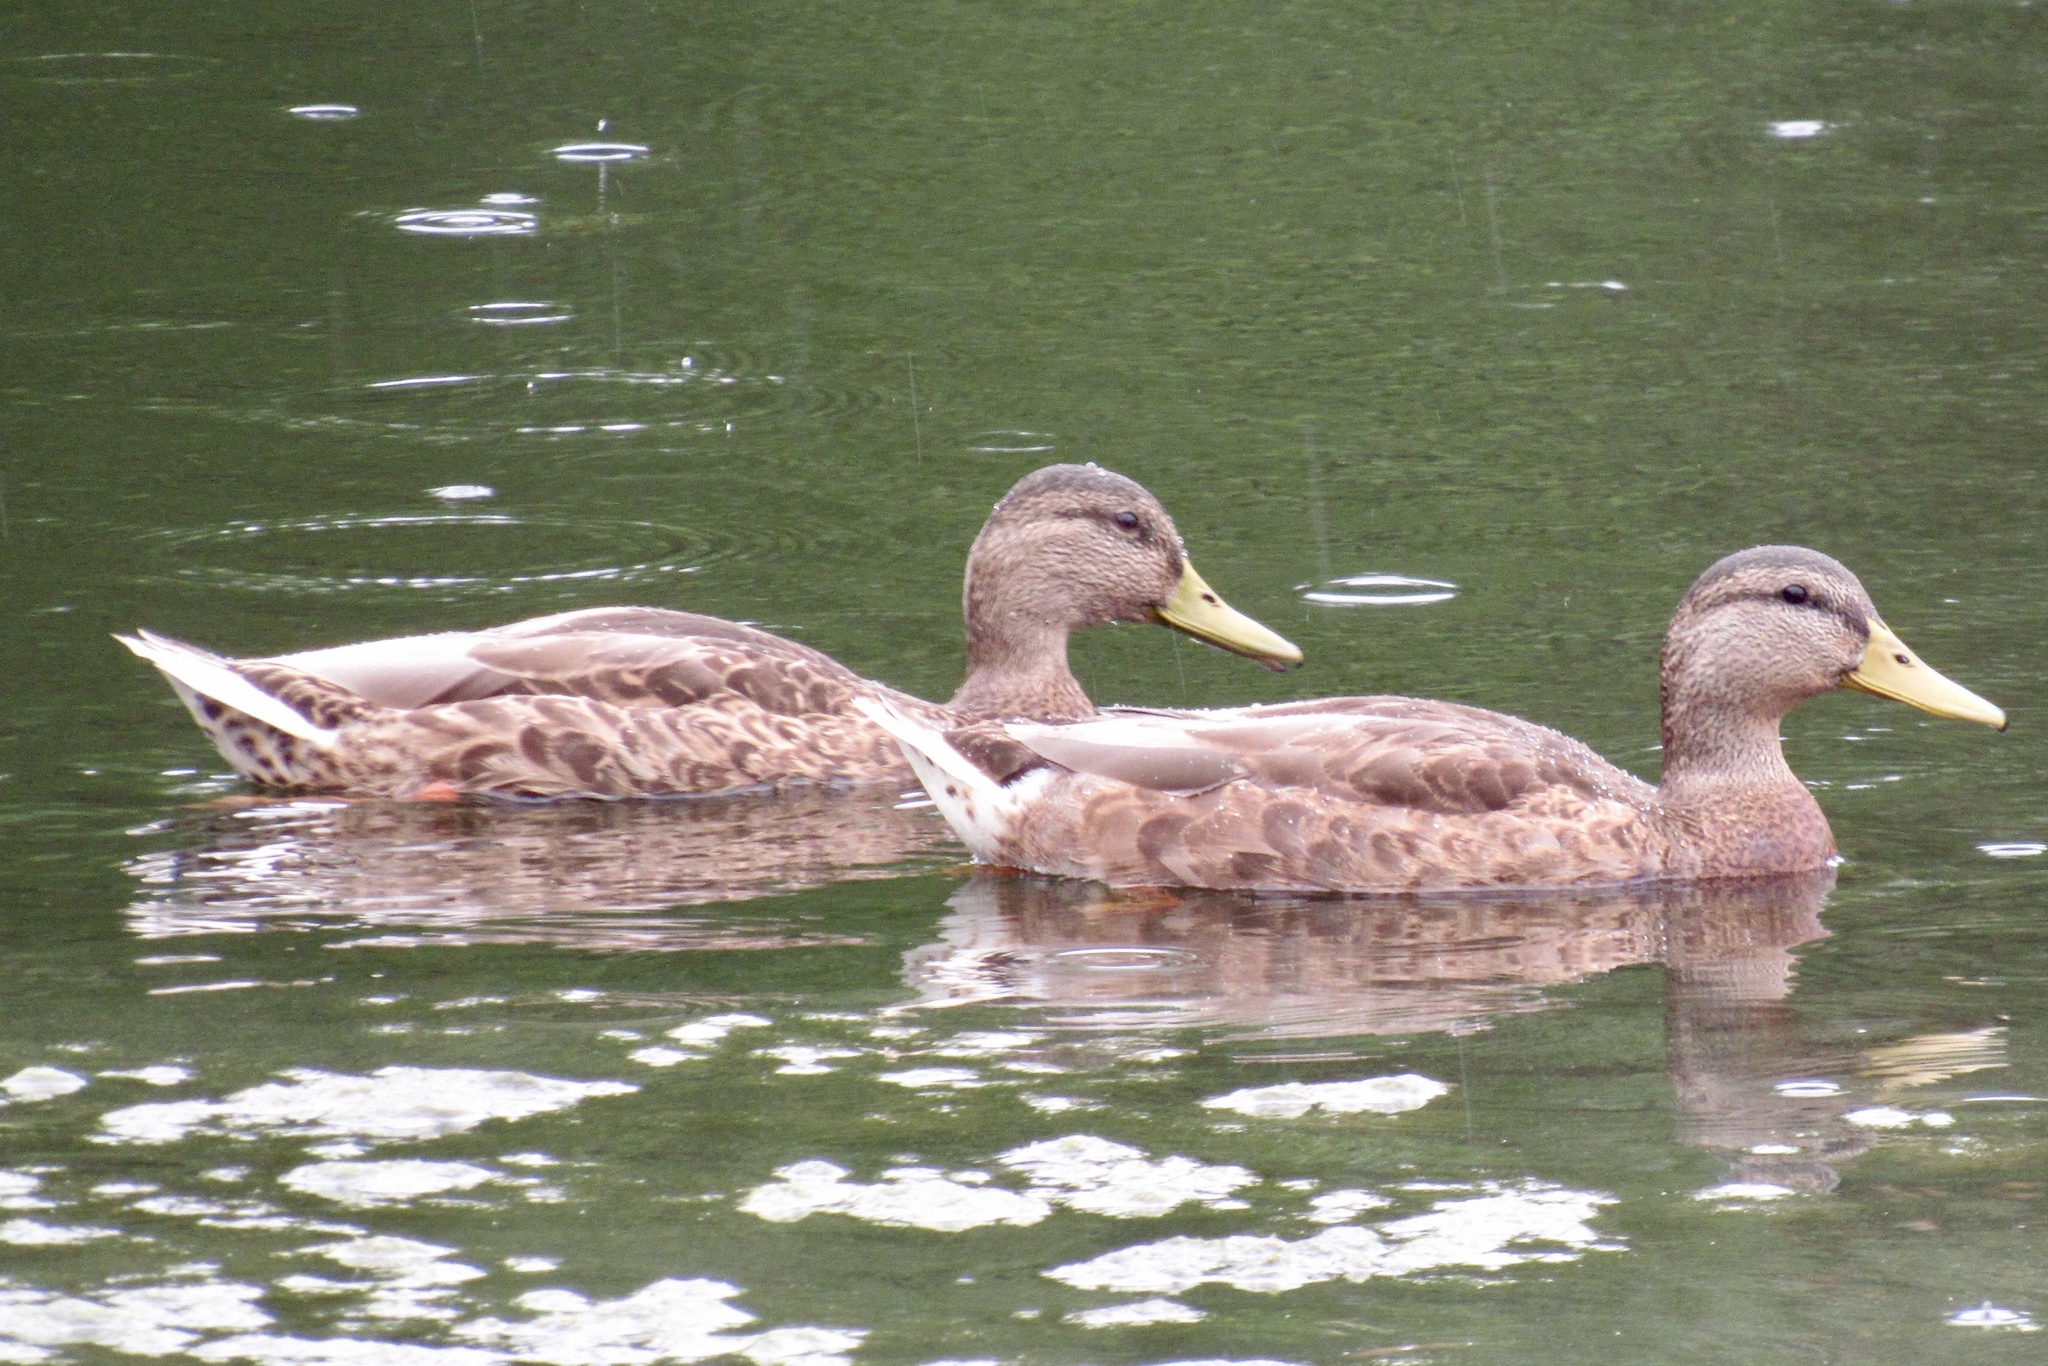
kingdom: Animalia
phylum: Chordata
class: Aves
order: Anseriformes
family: Anatidae
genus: Anas
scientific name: Anas platyrhynchos
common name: Mallard
